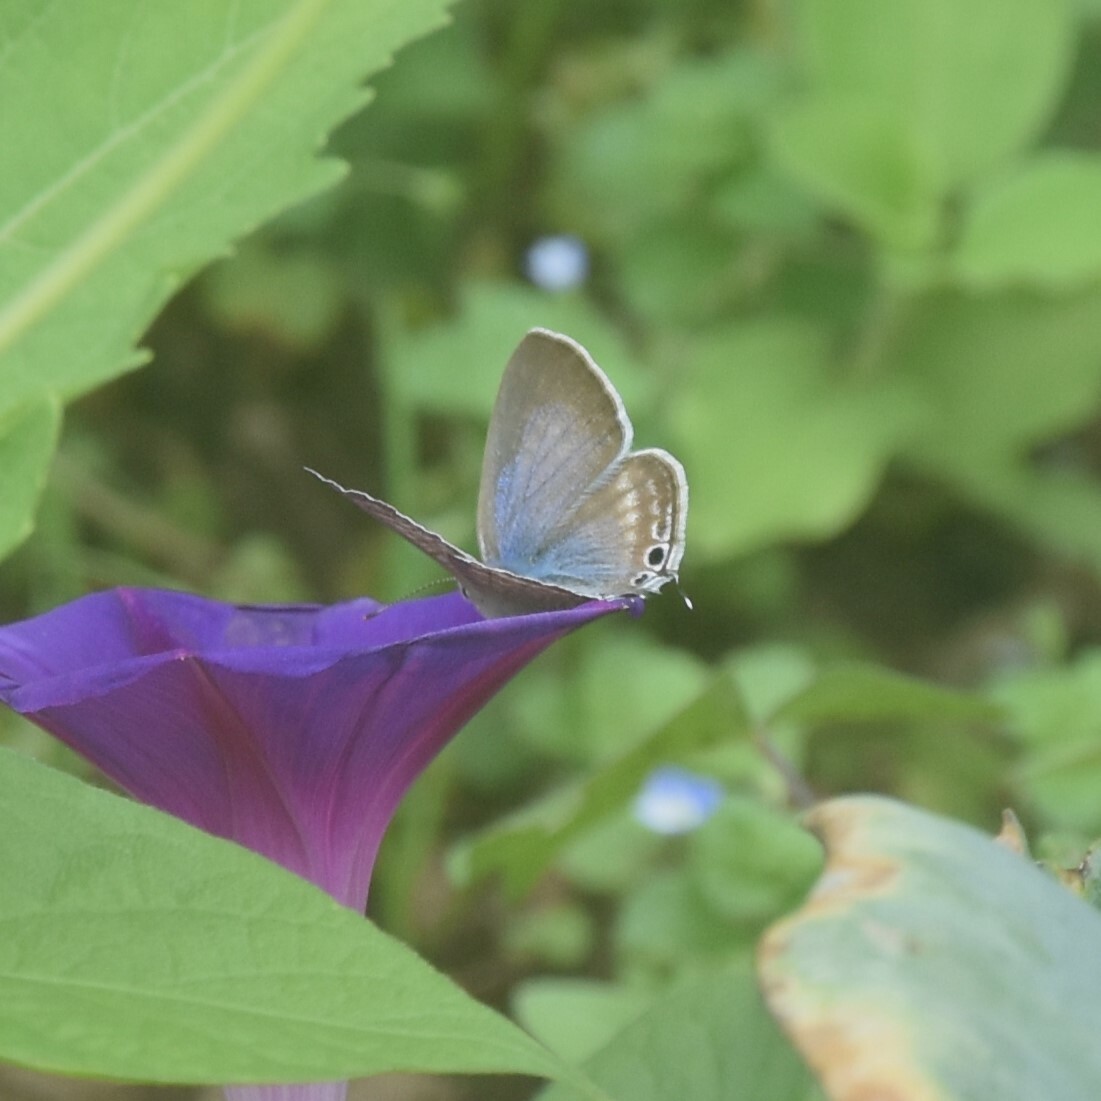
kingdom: Animalia
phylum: Arthropoda
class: Insecta
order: Lepidoptera
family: Lycaenidae
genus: Lampides
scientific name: Lampides boeticus
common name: Long-tailed blue
